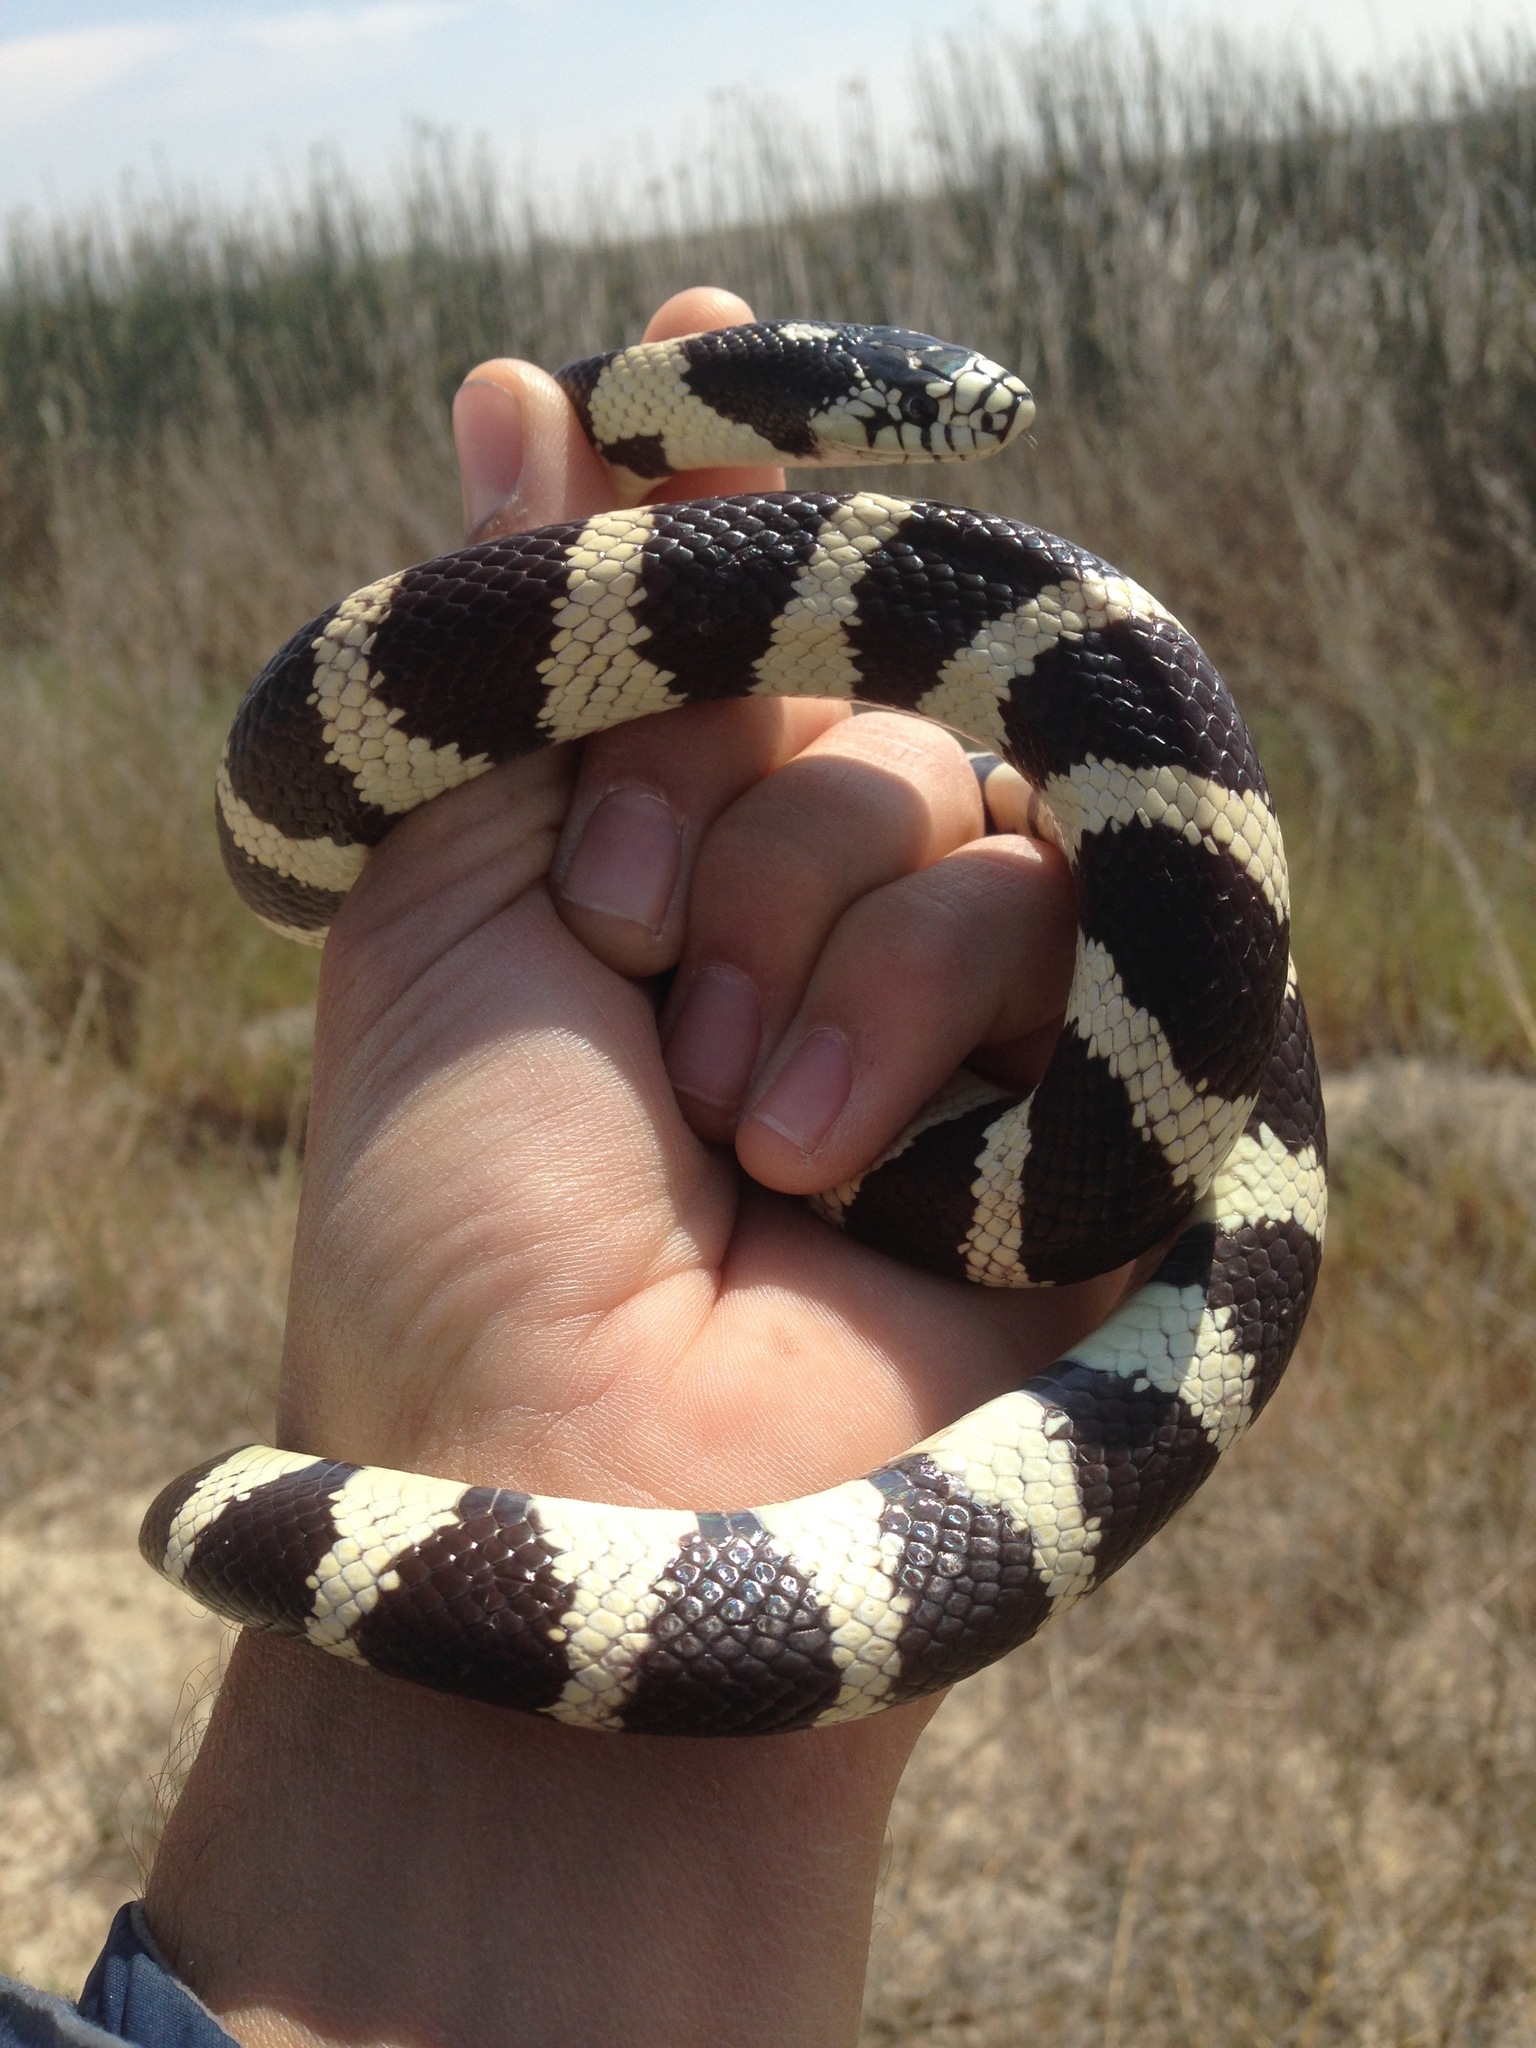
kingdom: Animalia
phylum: Chordata
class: Squamata
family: Colubridae
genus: Lampropeltis
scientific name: Lampropeltis californiae
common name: California kingsnake
